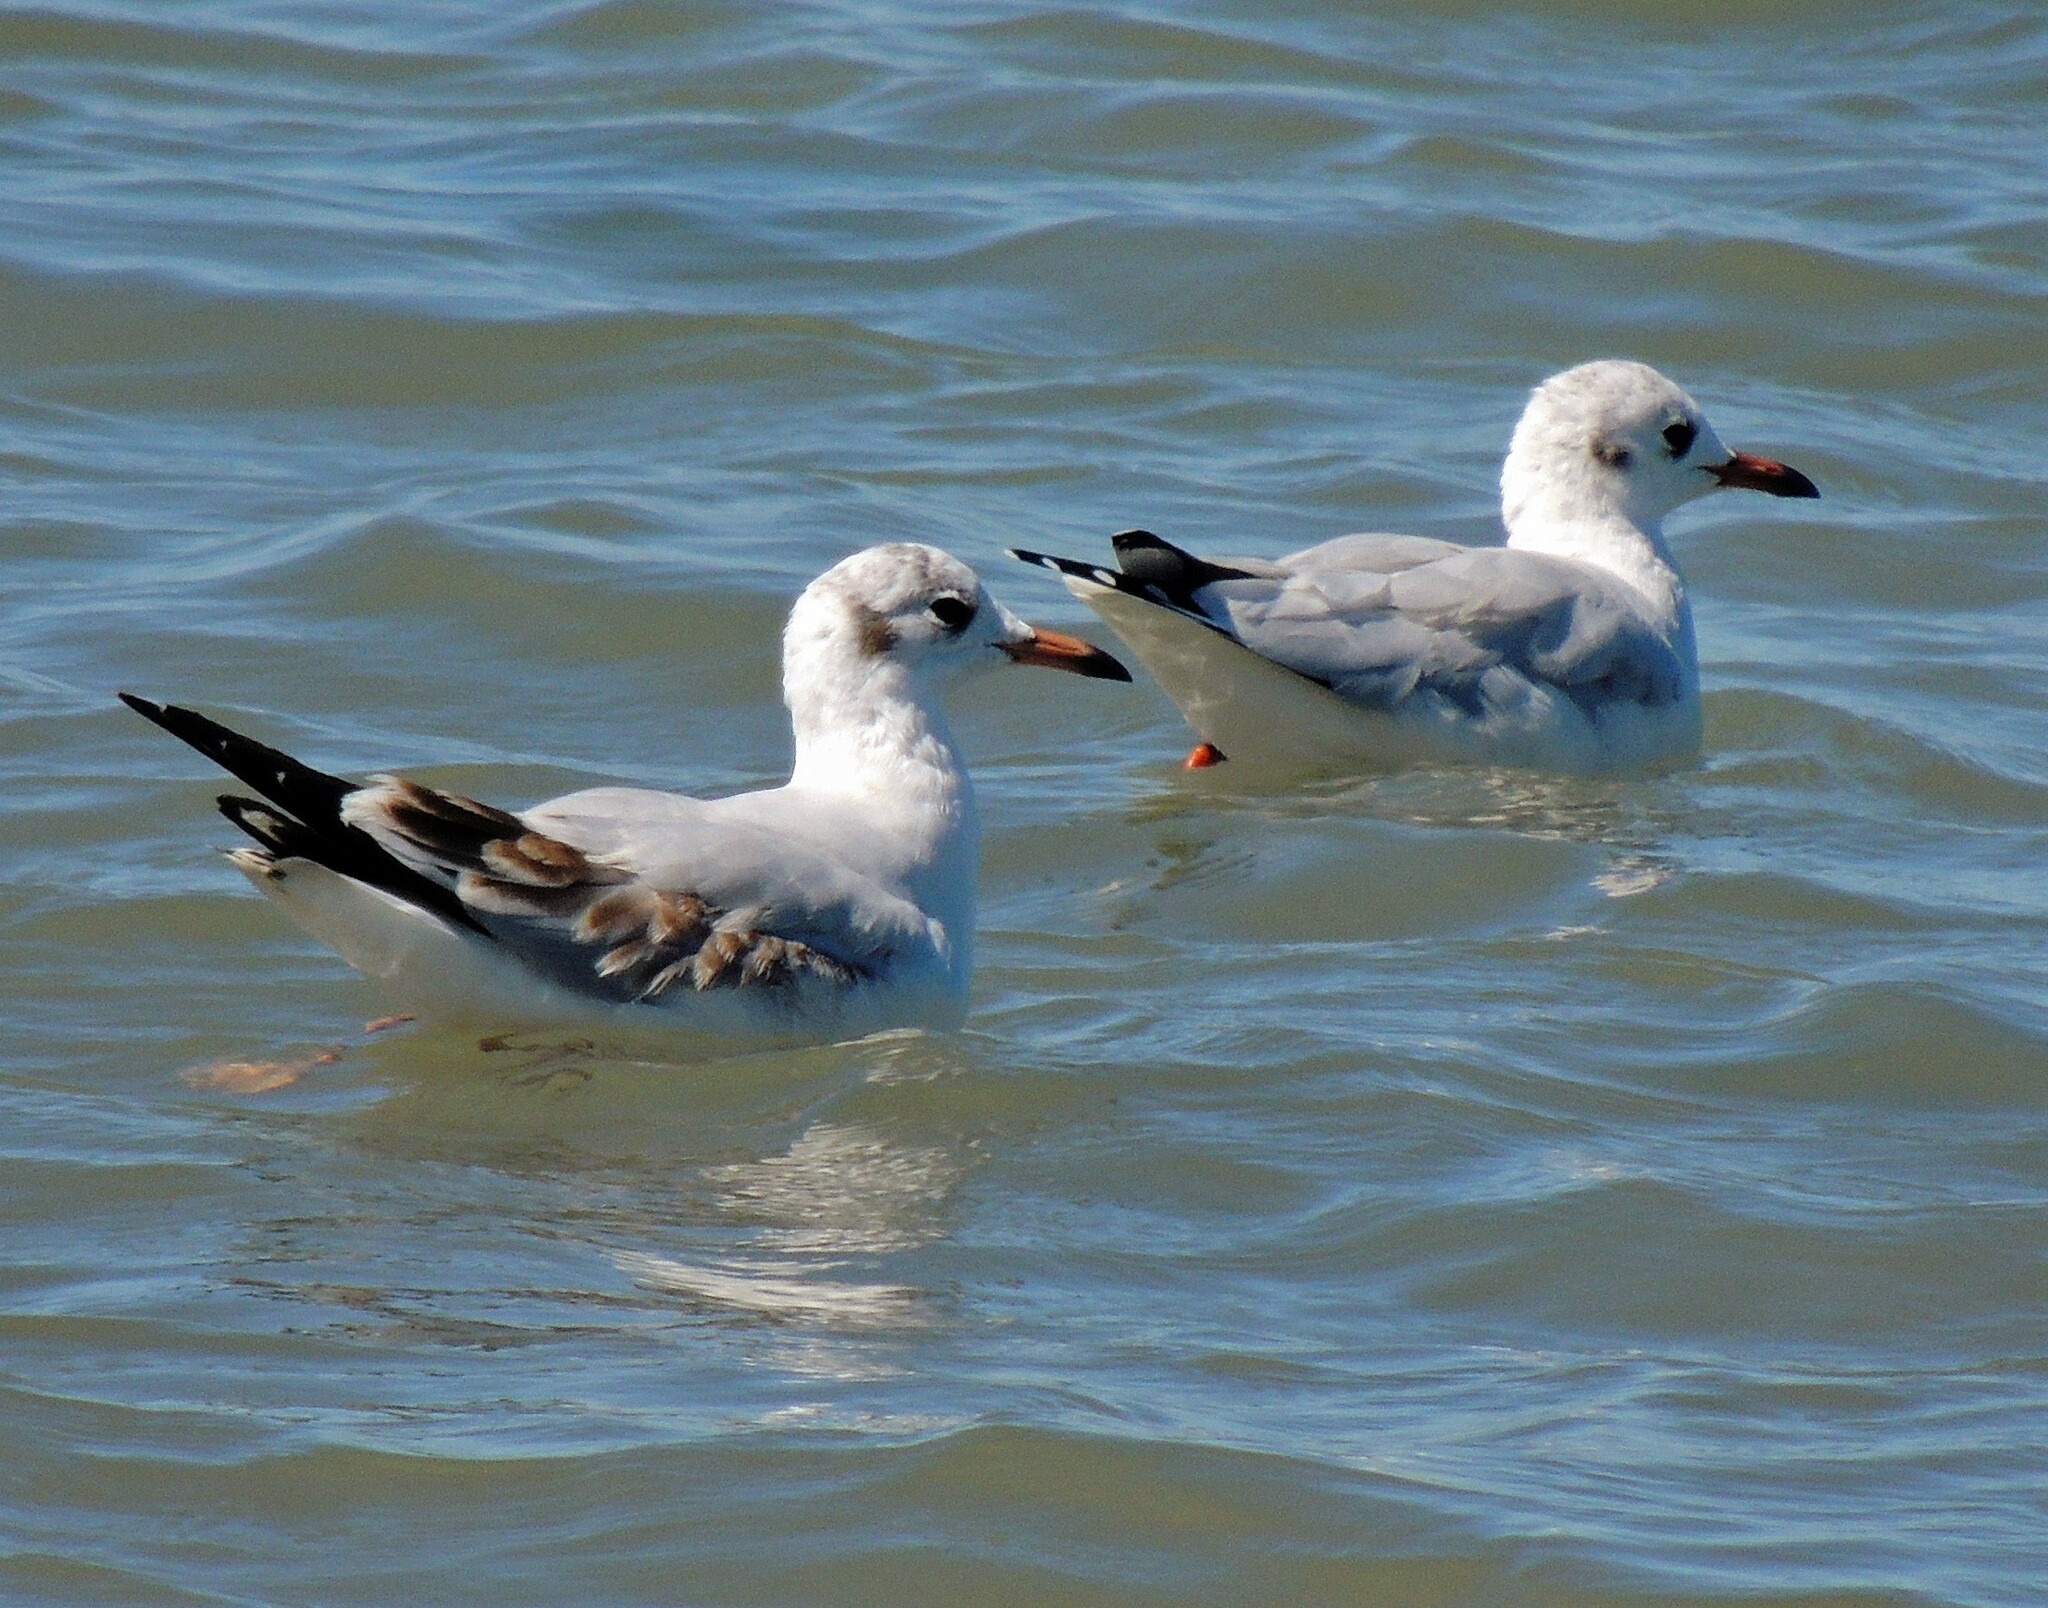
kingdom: Animalia
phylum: Chordata
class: Aves
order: Charadriiformes
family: Laridae
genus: Chroicocephalus
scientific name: Chroicocephalus maculipennis
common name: Brown-hooded gull
